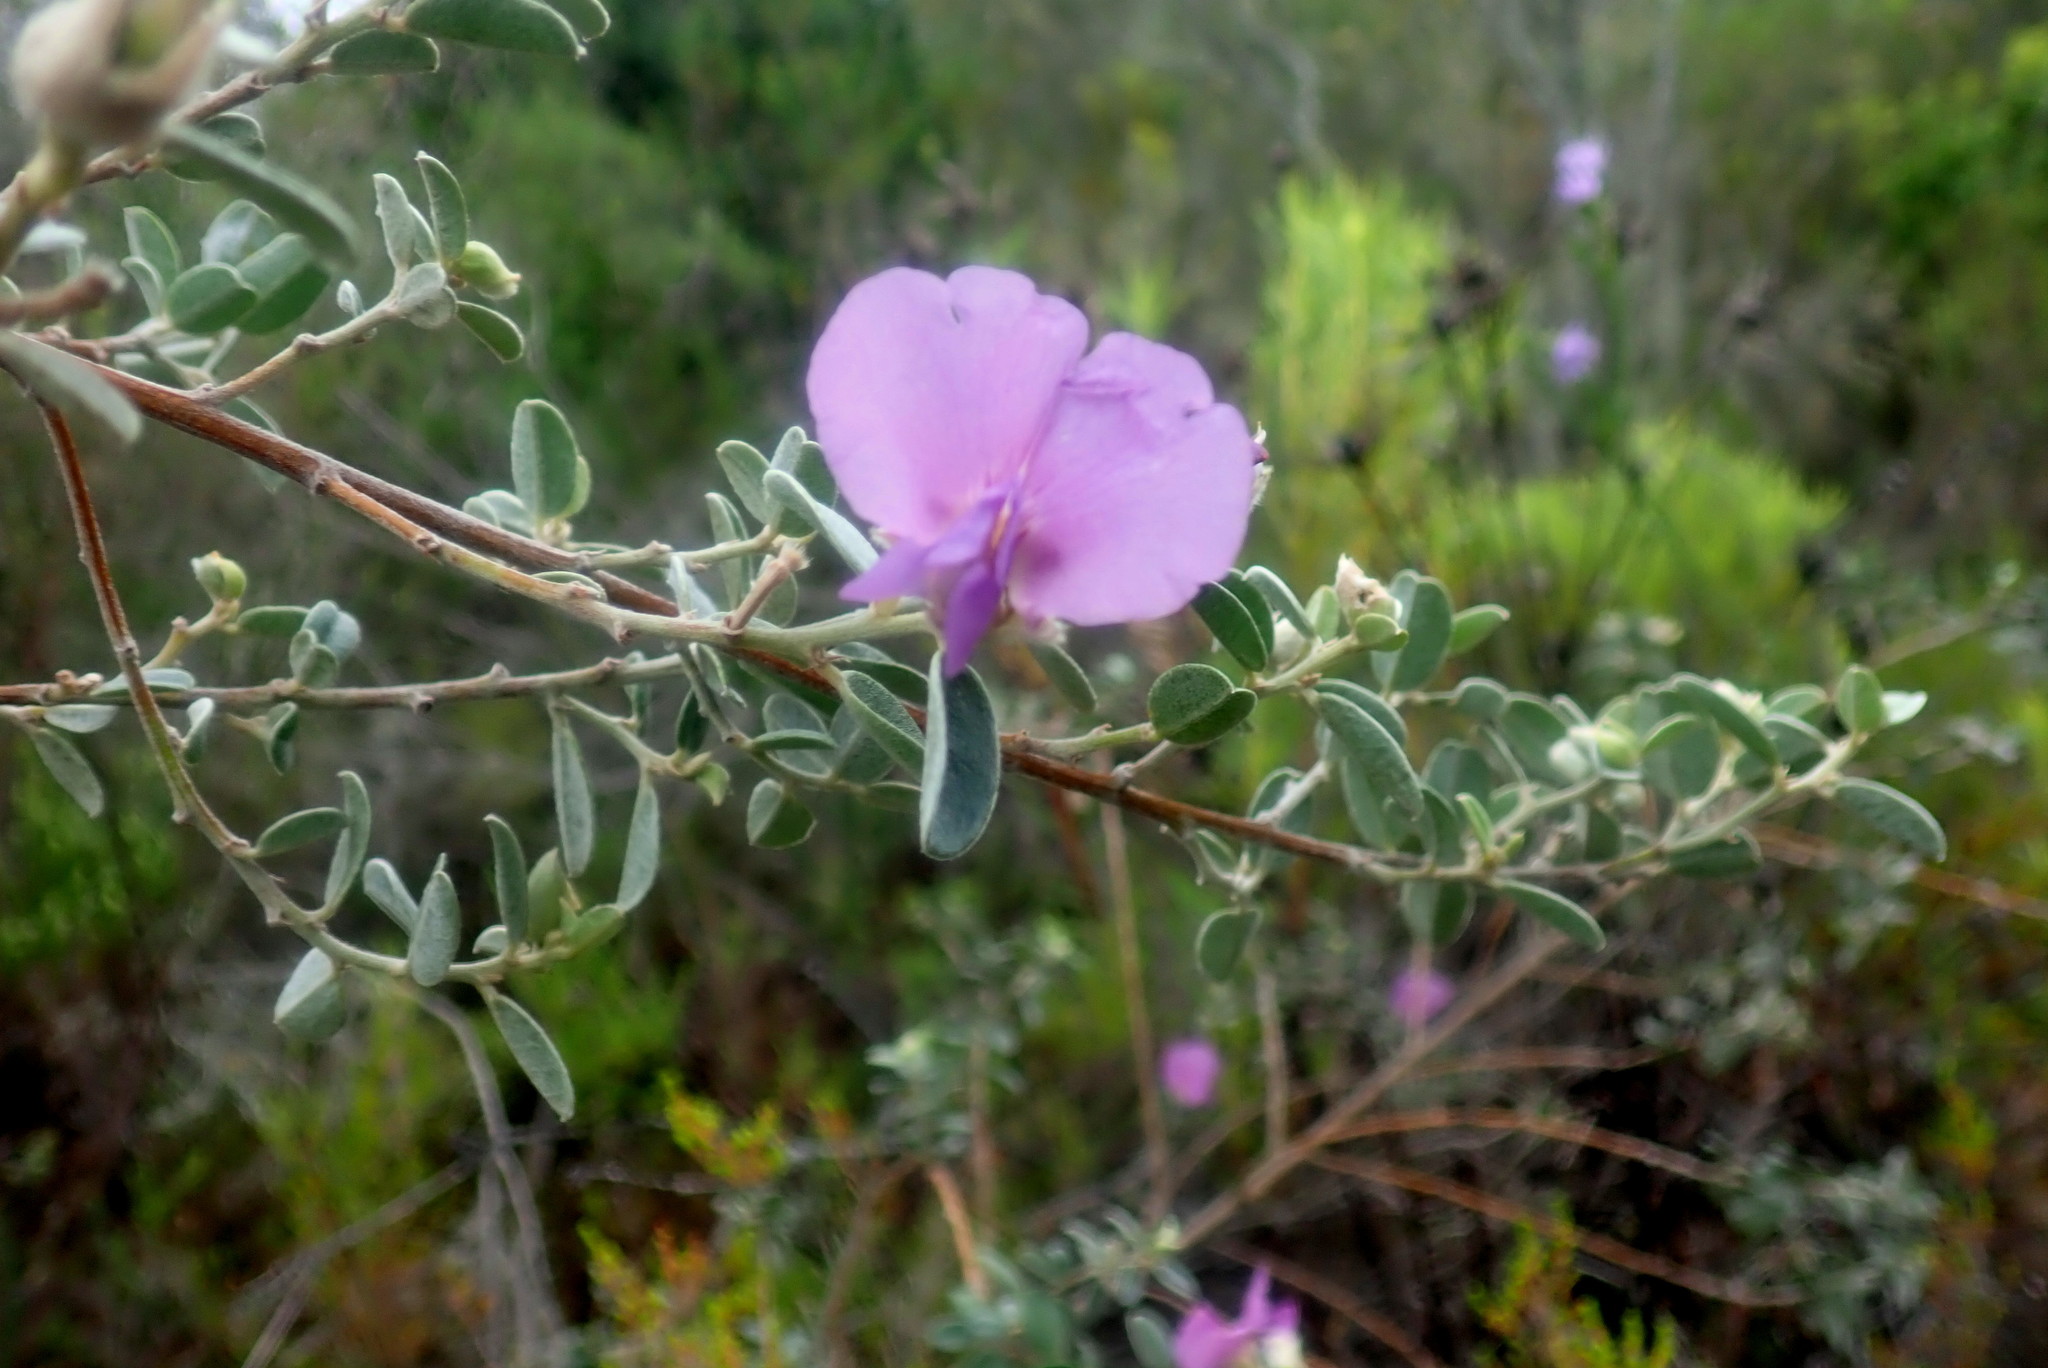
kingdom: Plantae
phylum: Tracheophyta
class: Magnoliopsida
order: Fabales
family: Fabaceae
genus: Podalyria
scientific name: Podalyria burchellii
